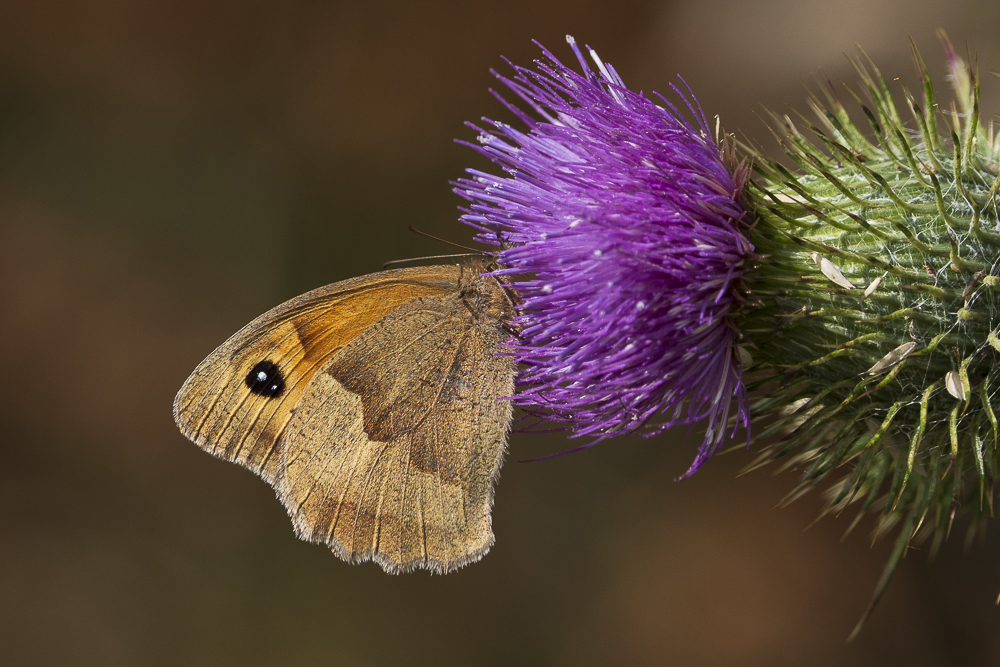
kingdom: Animalia
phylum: Arthropoda
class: Insecta
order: Lepidoptera
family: Nymphalidae
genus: Maniola
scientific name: Maniola jurtina
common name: Meadow brown
